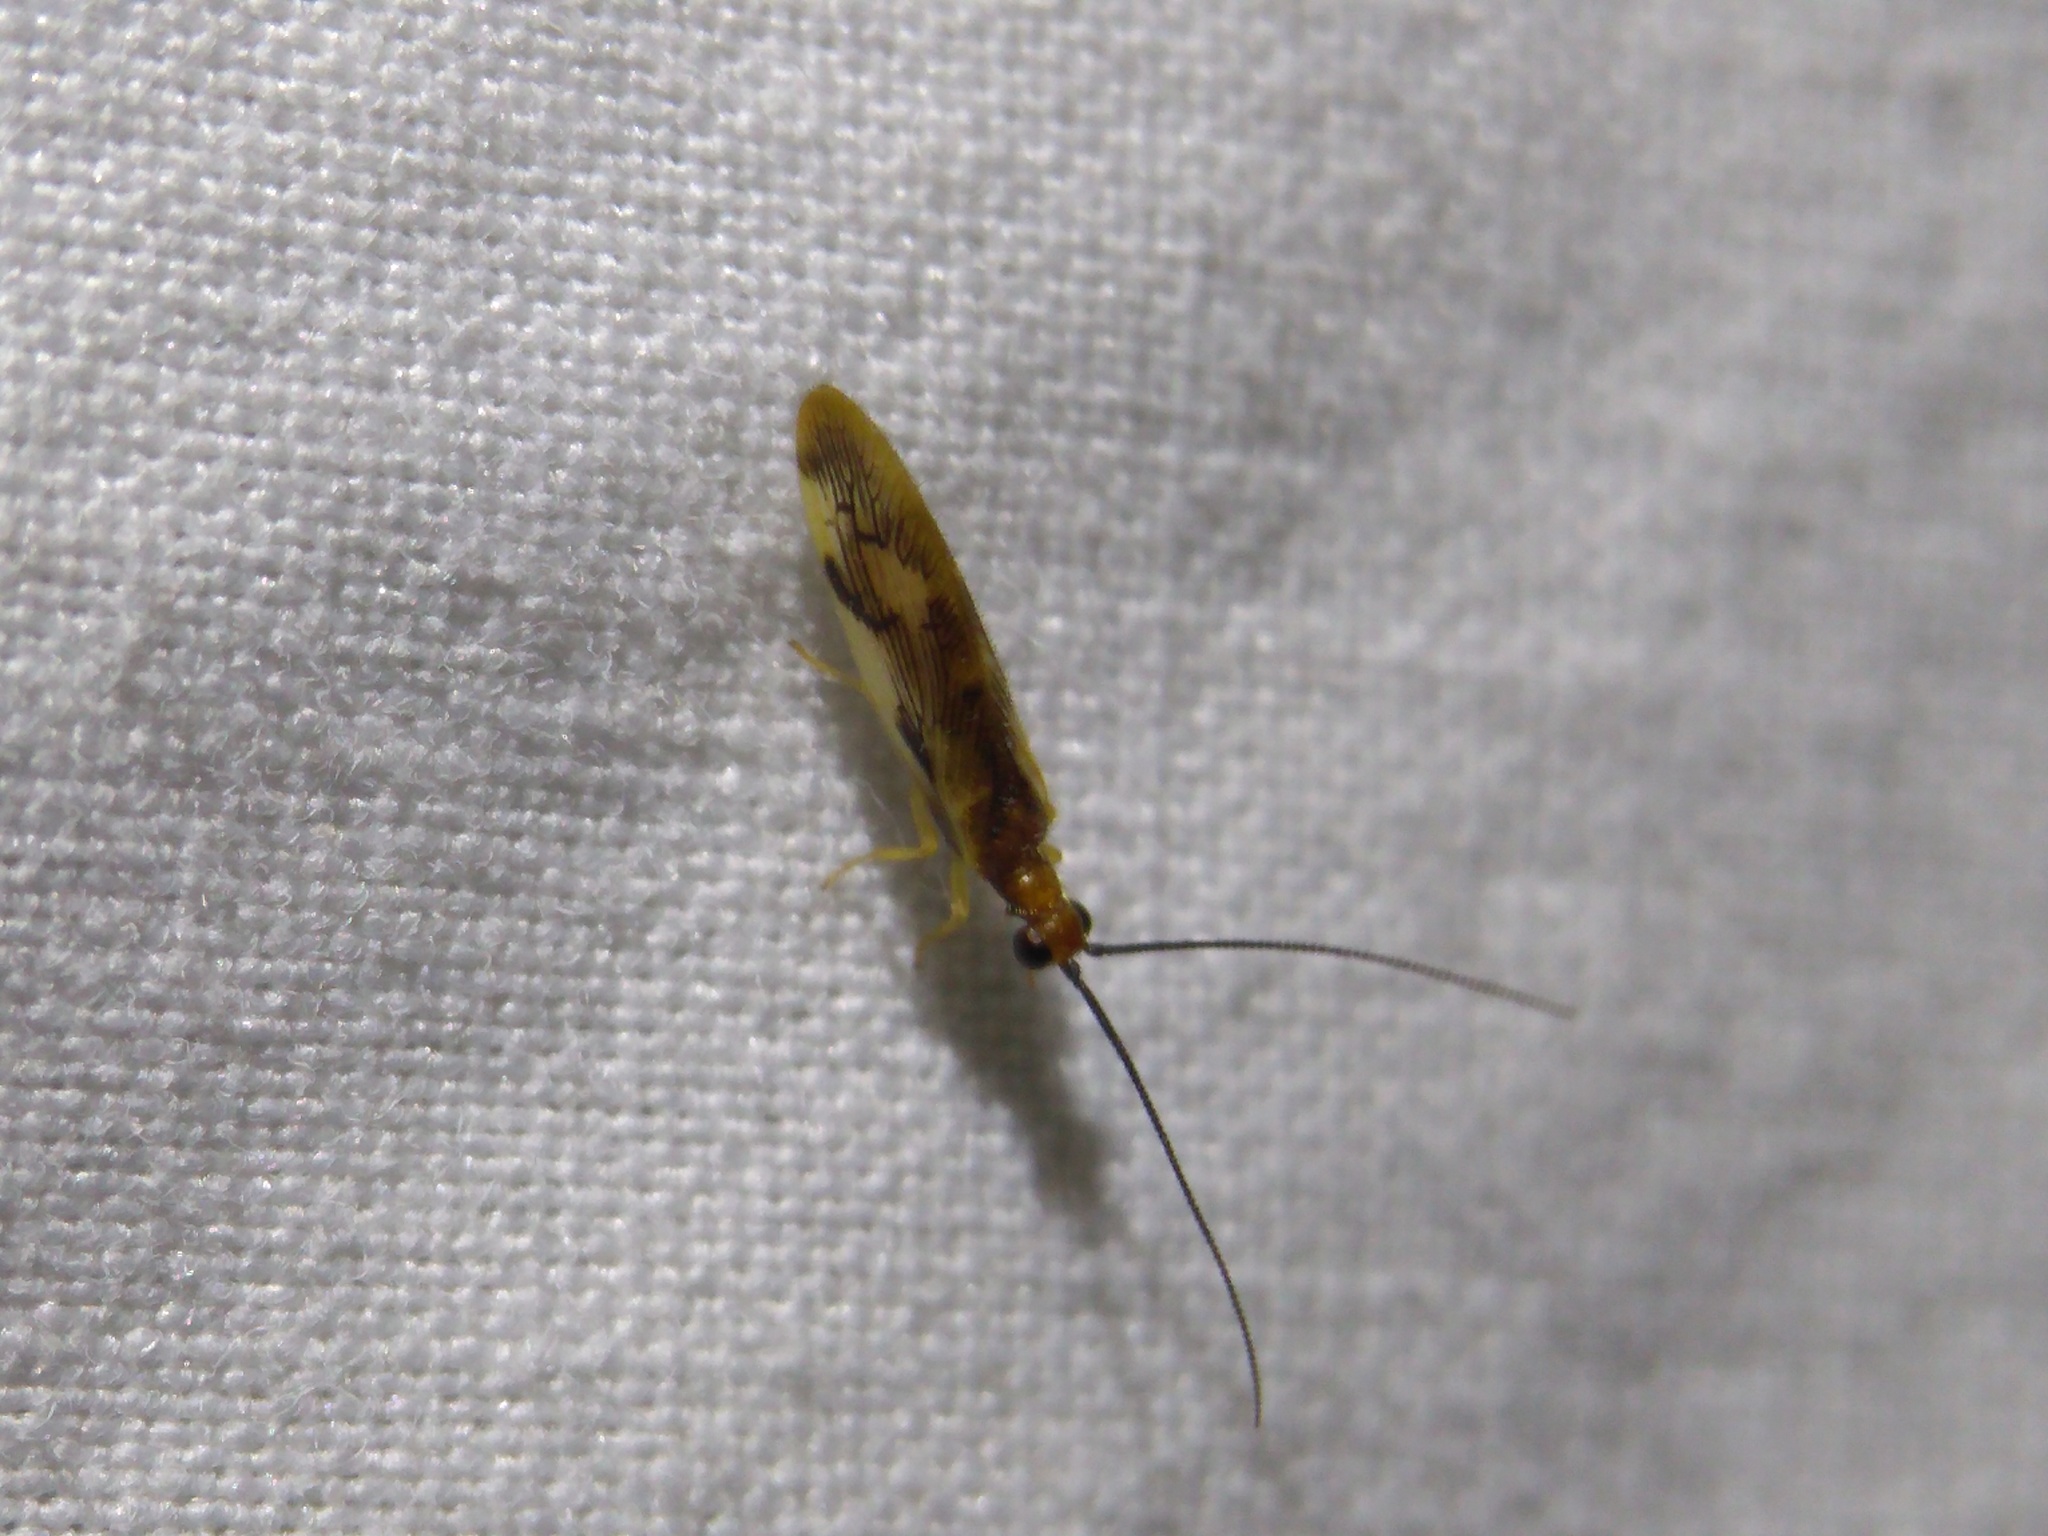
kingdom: Animalia
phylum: Arthropoda
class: Insecta
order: Neuroptera
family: Sisyridae
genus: Climacia
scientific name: Climacia areolaris
